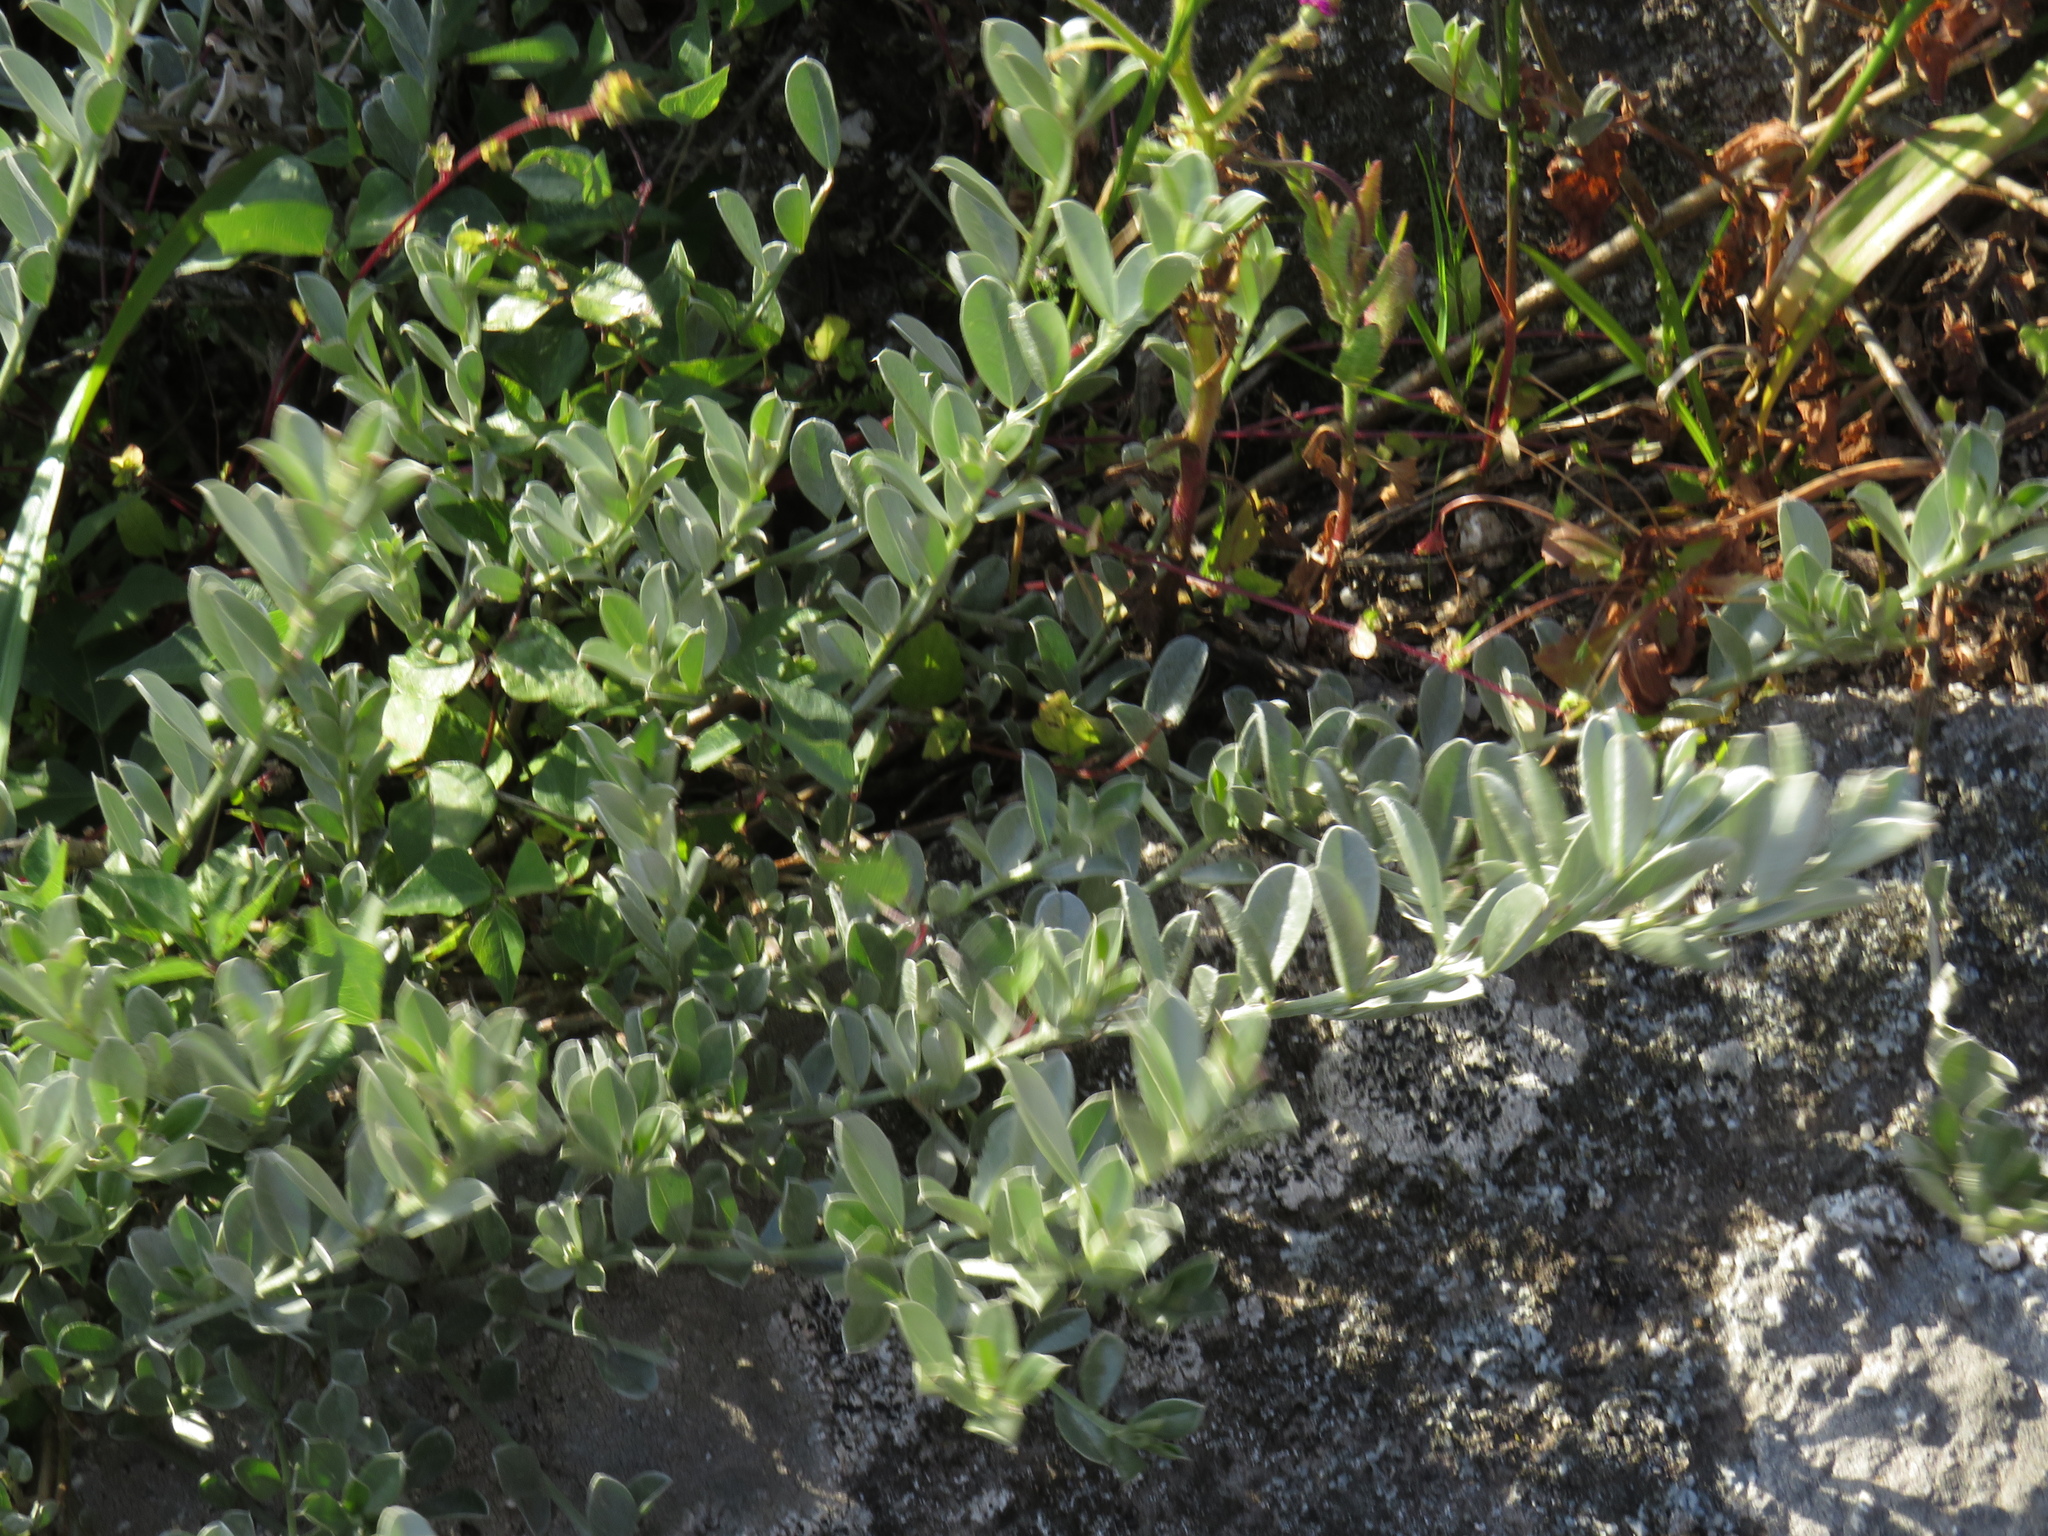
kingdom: Plantae
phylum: Tracheophyta
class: Magnoliopsida
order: Fabales
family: Fabaceae
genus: Podalyria
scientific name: Podalyria sericea
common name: Silver podalyria
